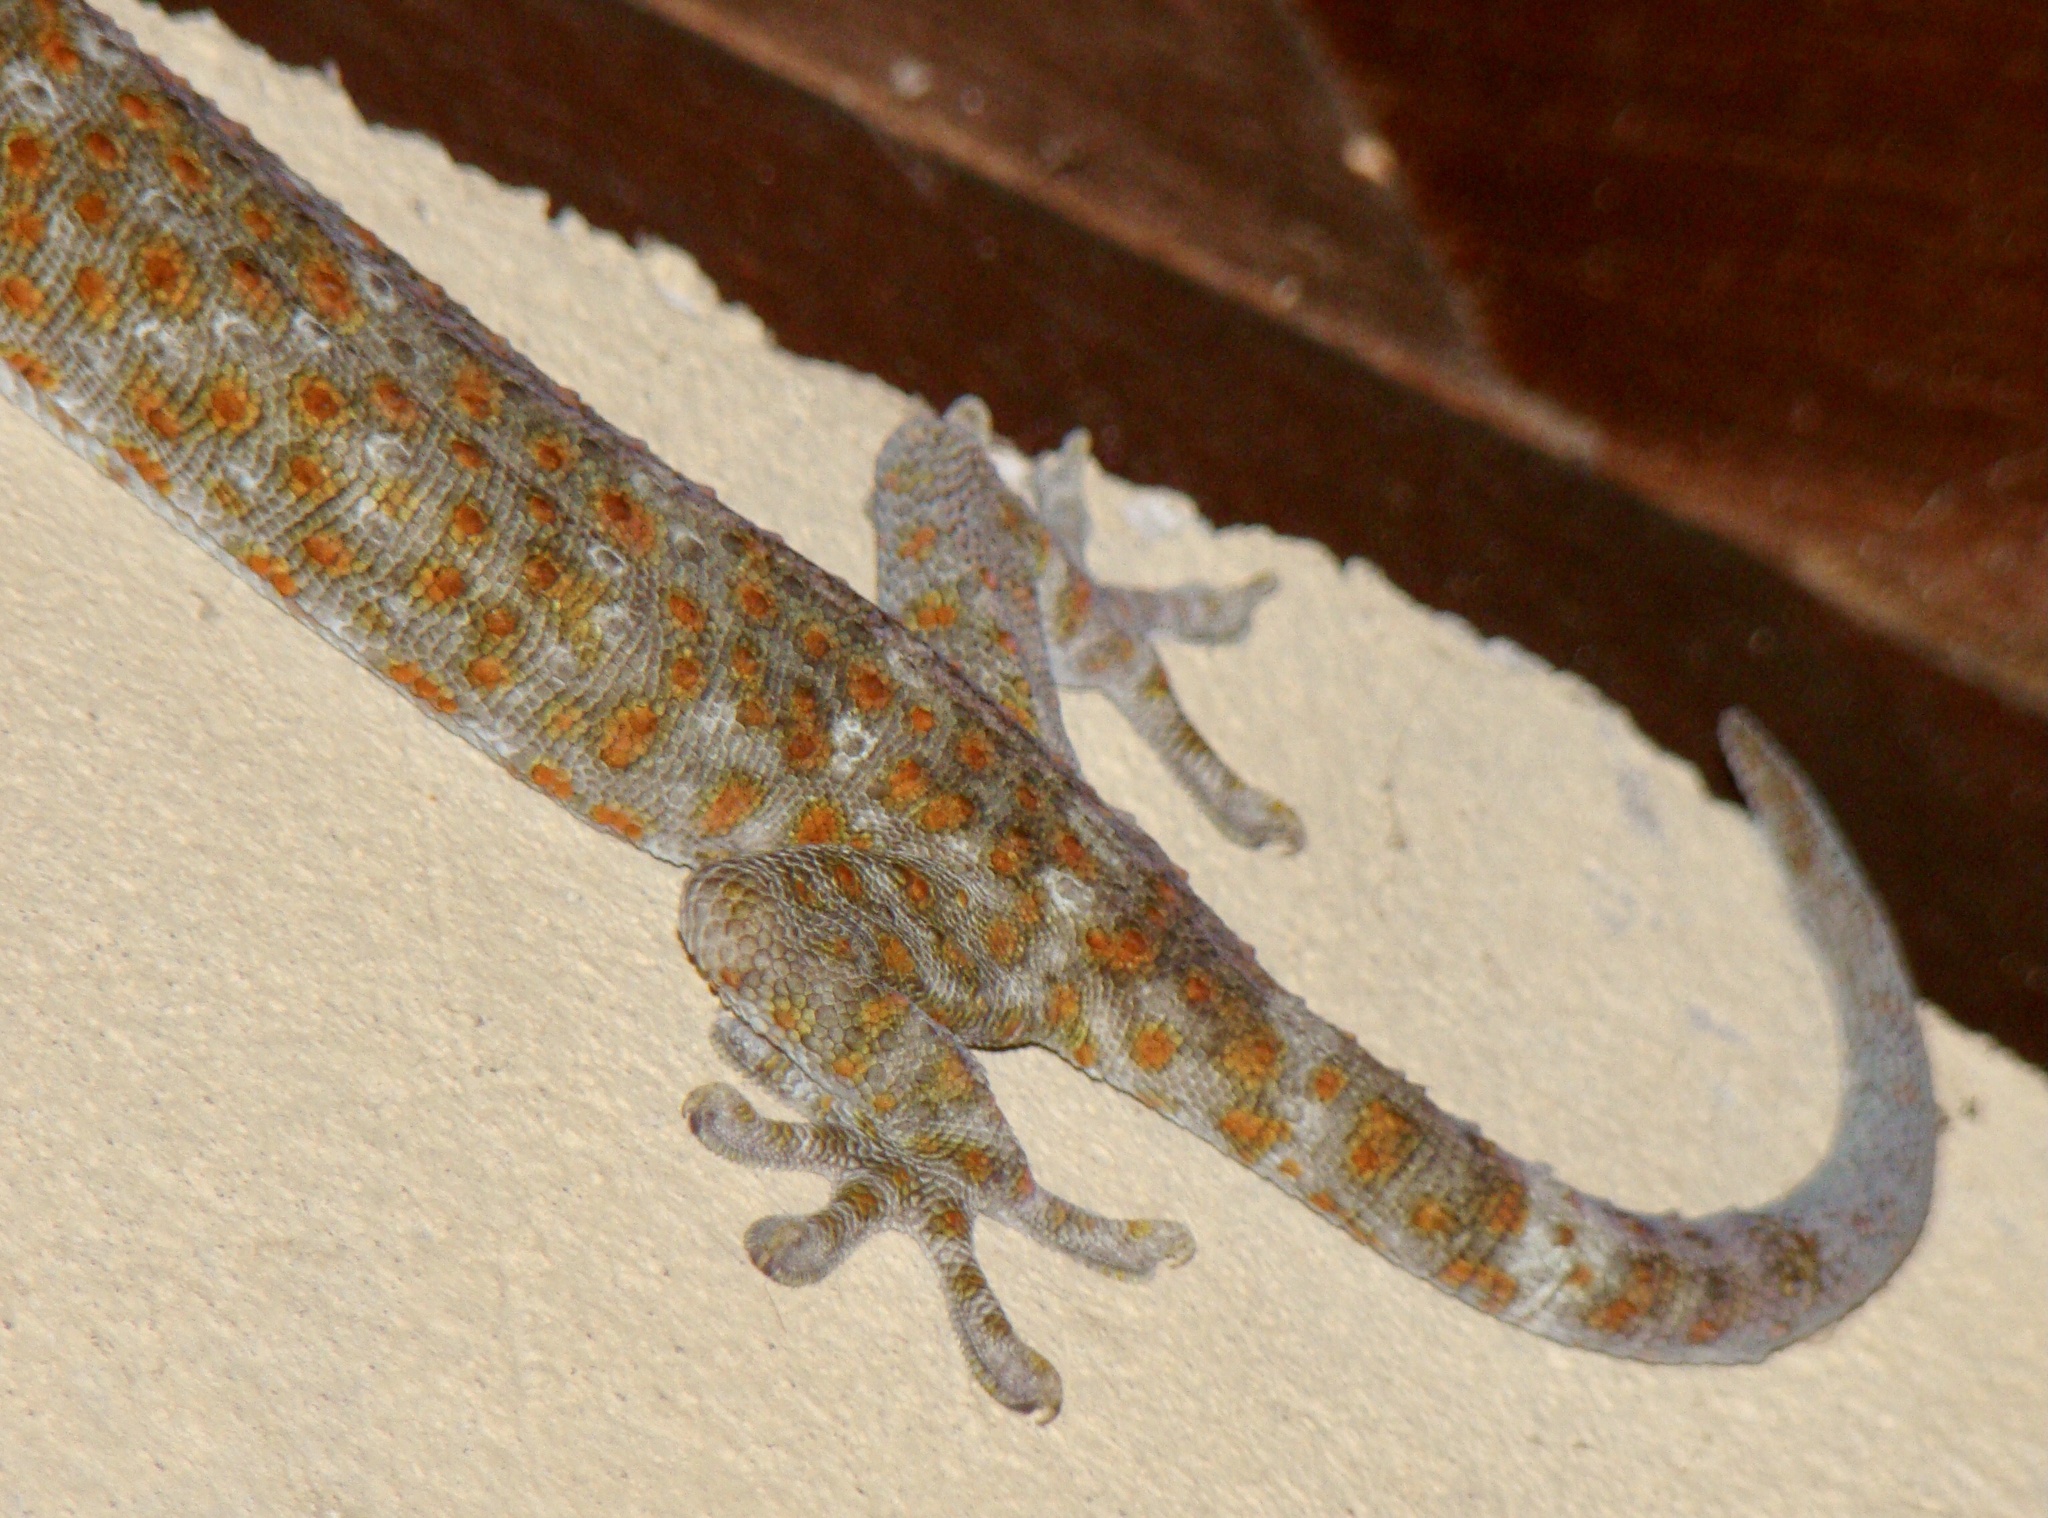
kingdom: Animalia
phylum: Chordata
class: Squamata
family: Gekkonidae
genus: Gekko
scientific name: Gekko gecko
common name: Tokay gecko
